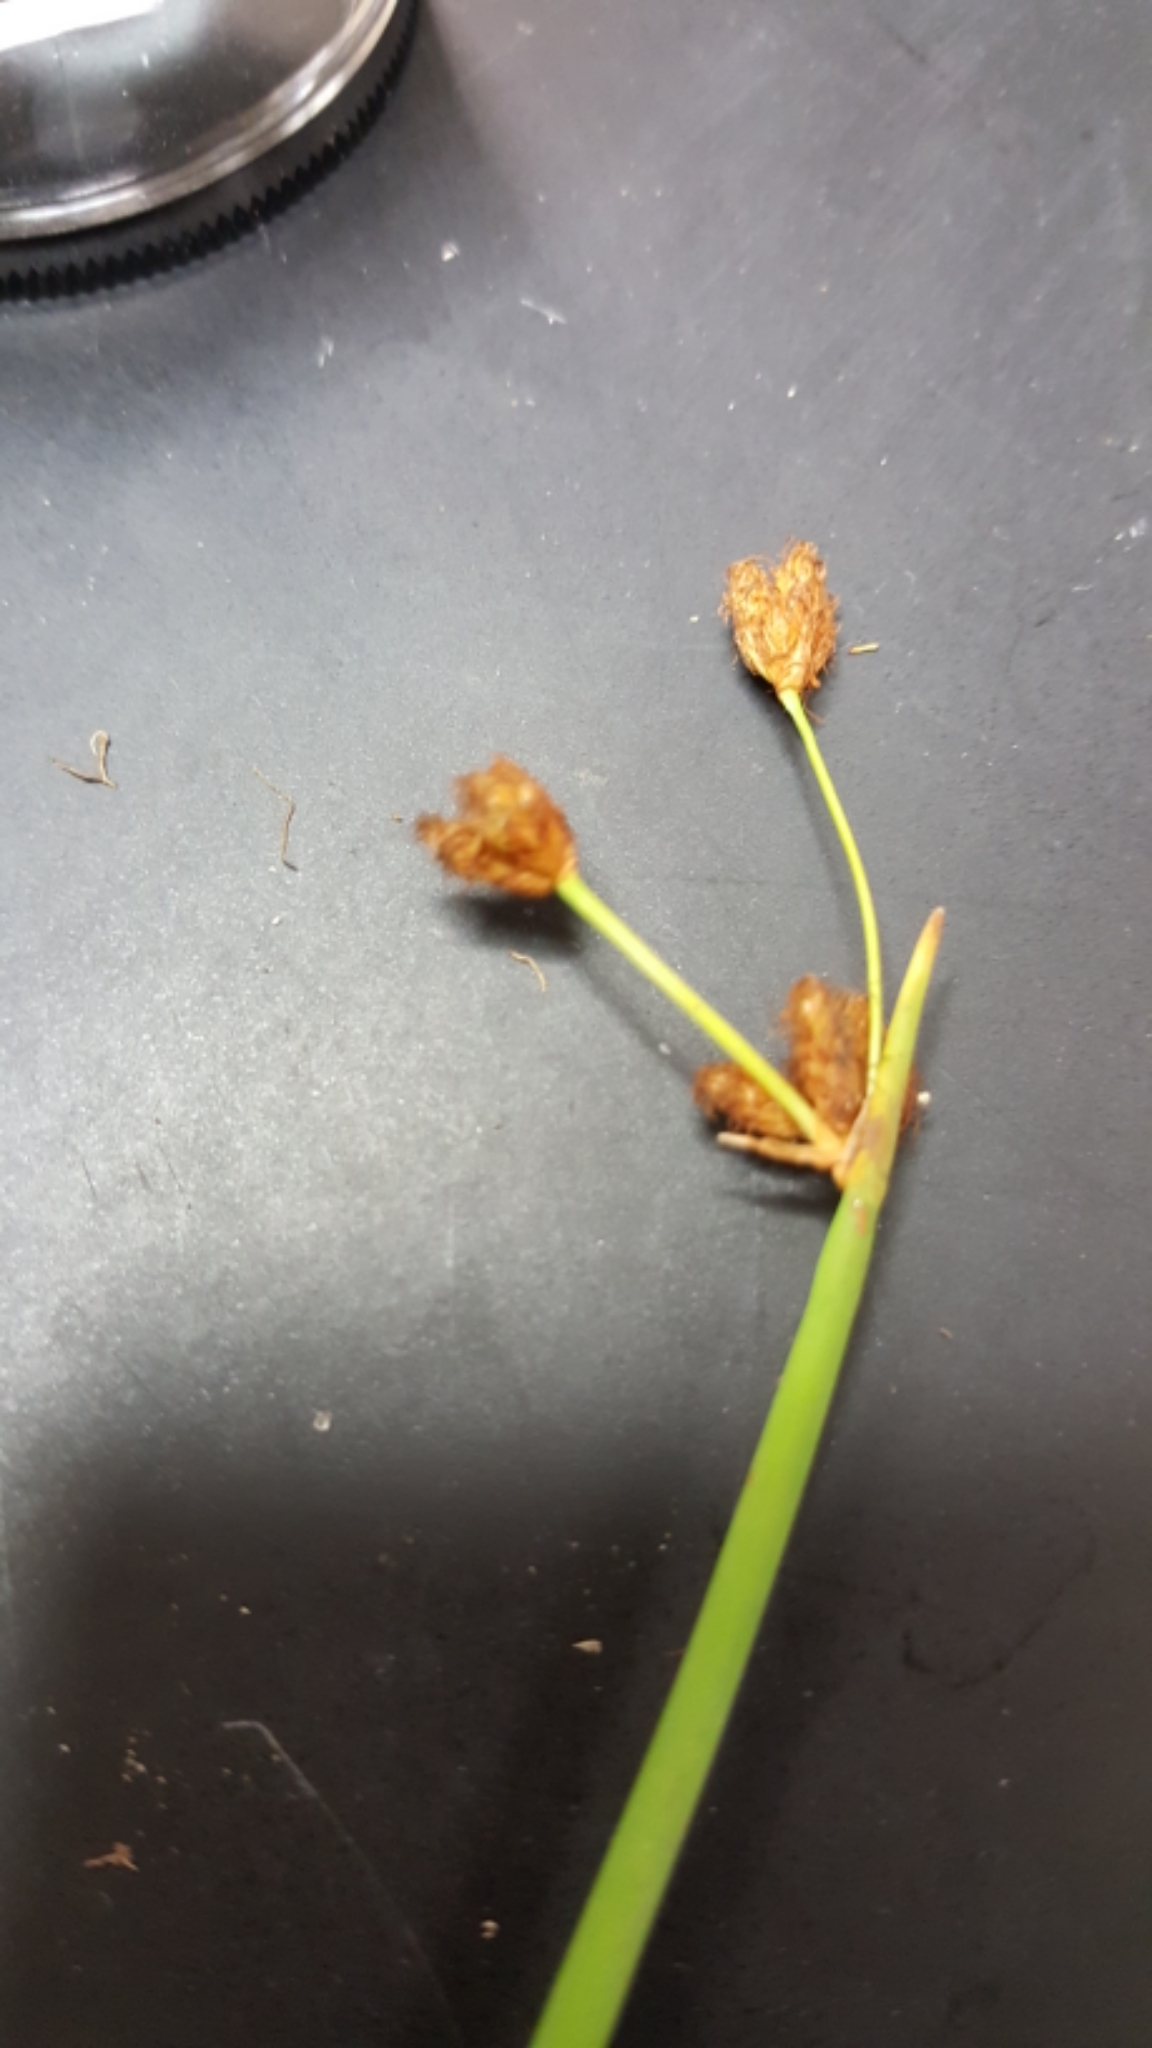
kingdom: Plantae
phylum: Tracheophyta
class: Liliopsida
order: Poales
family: Cyperaceae
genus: Schoenoplectus
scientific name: Schoenoplectus acutus
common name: Hardstem bulrush
